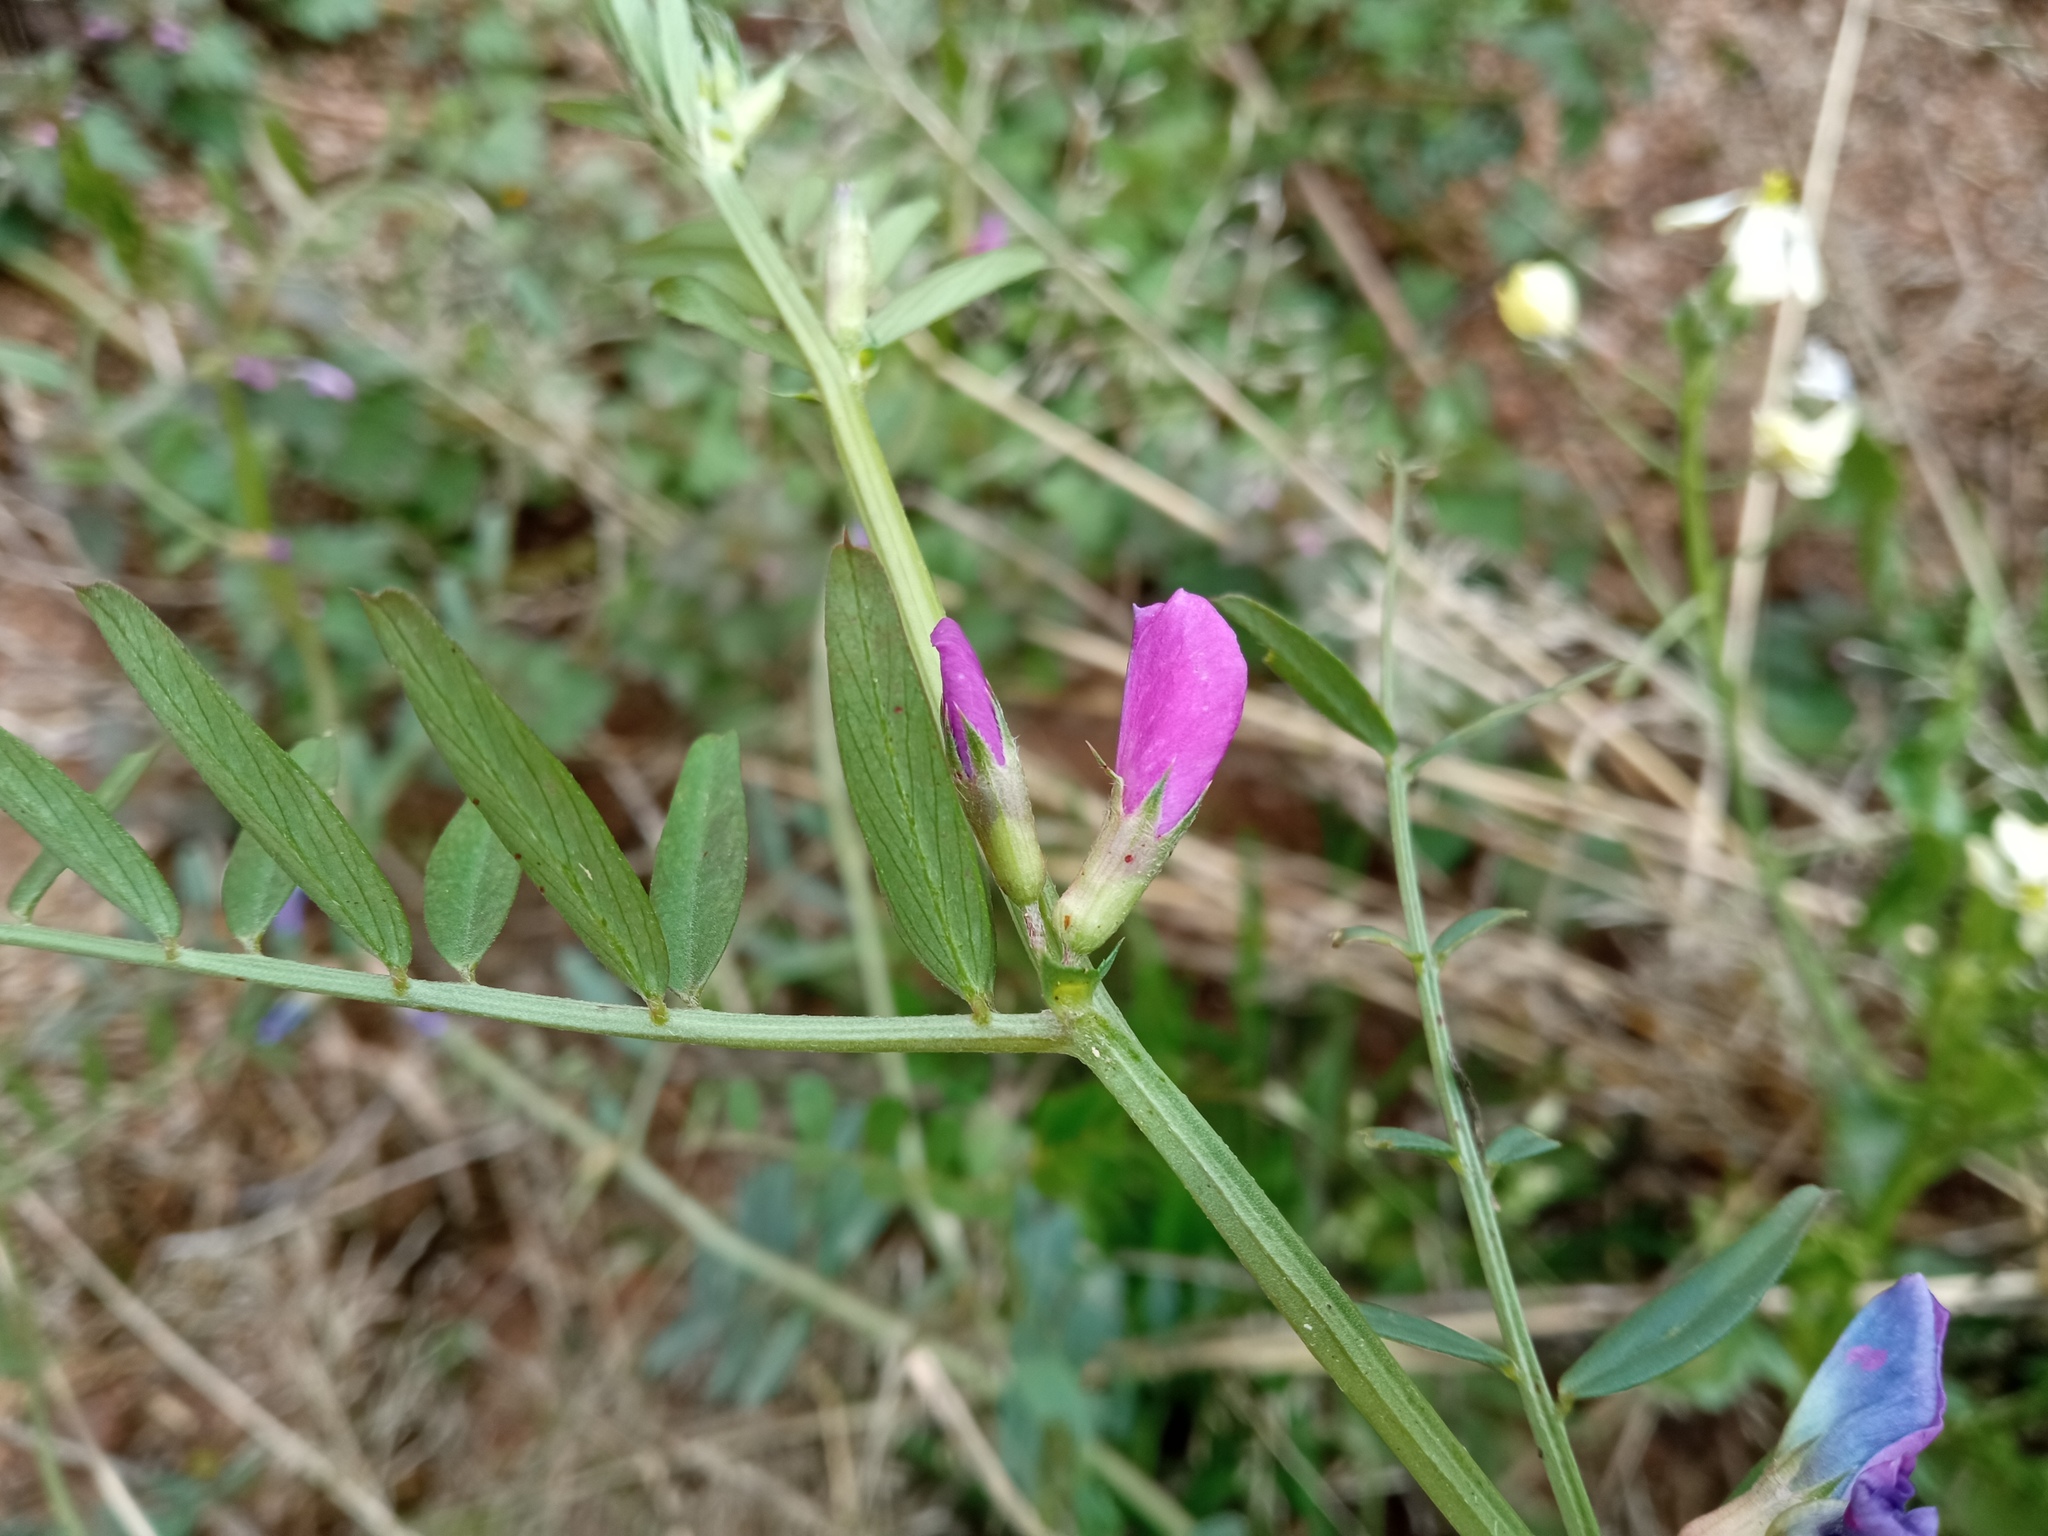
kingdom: Plantae
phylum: Tracheophyta
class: Magnoliopsida
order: Fabales
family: Fabaceae
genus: Vicia
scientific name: Vicia sativa
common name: Garden vetch
